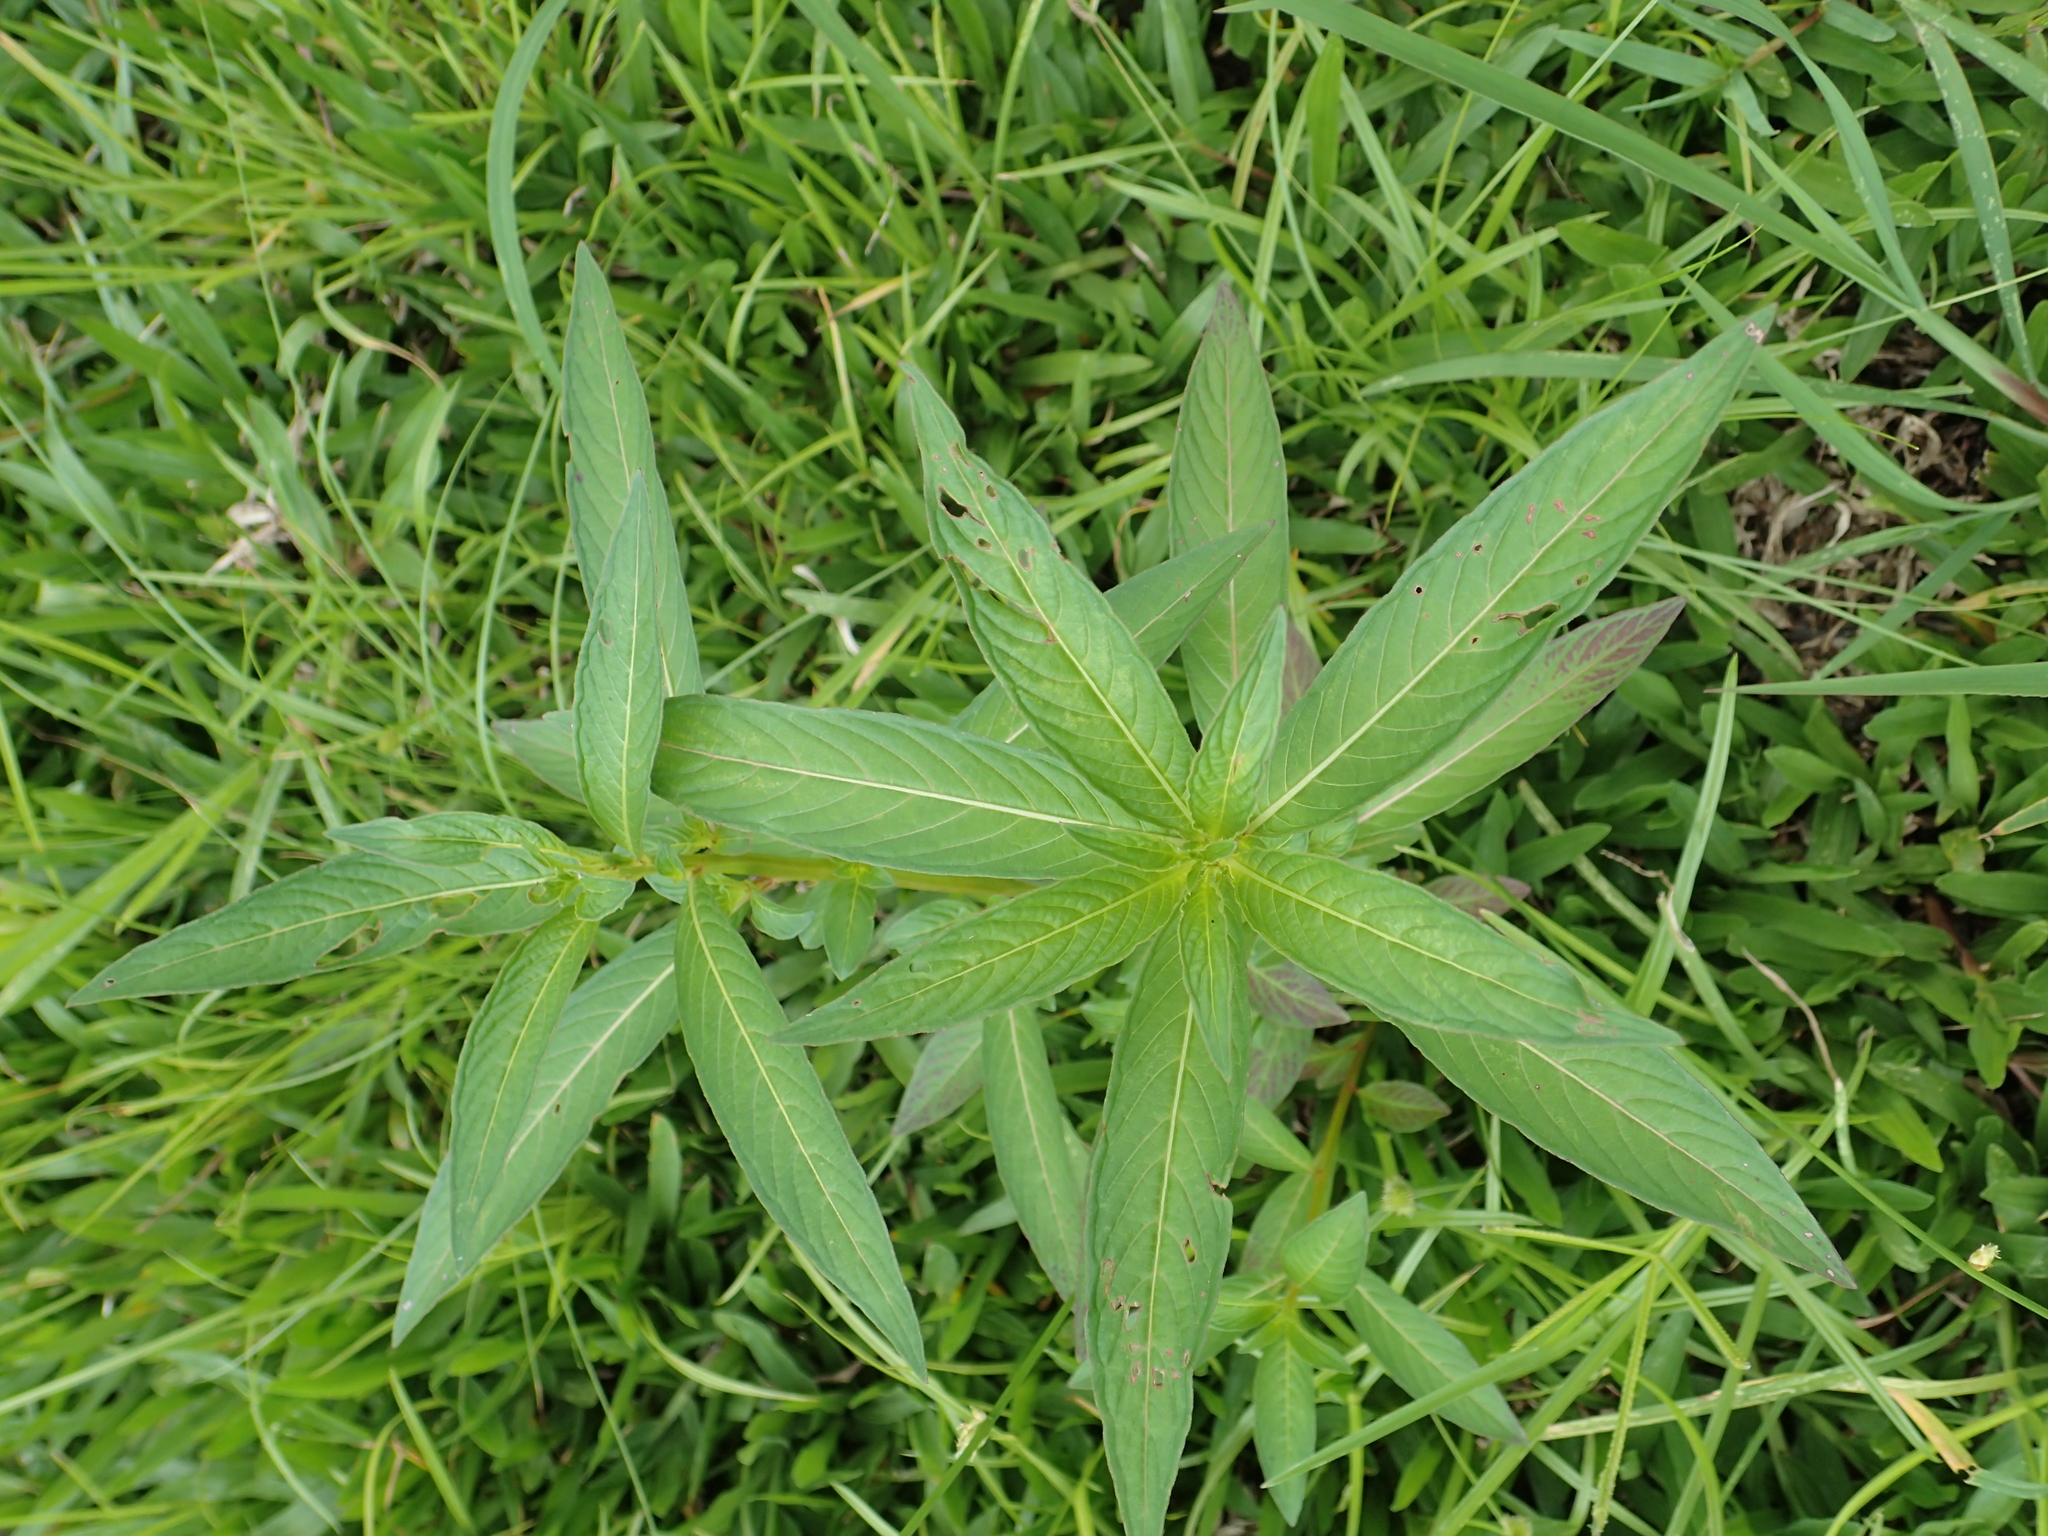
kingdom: Plantae
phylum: Tracheophyta
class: Magnoliopsida
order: Myrtales
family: Onagraceae
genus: Ludwigia
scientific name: Ludwigia octovalvis
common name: Water-primrose
